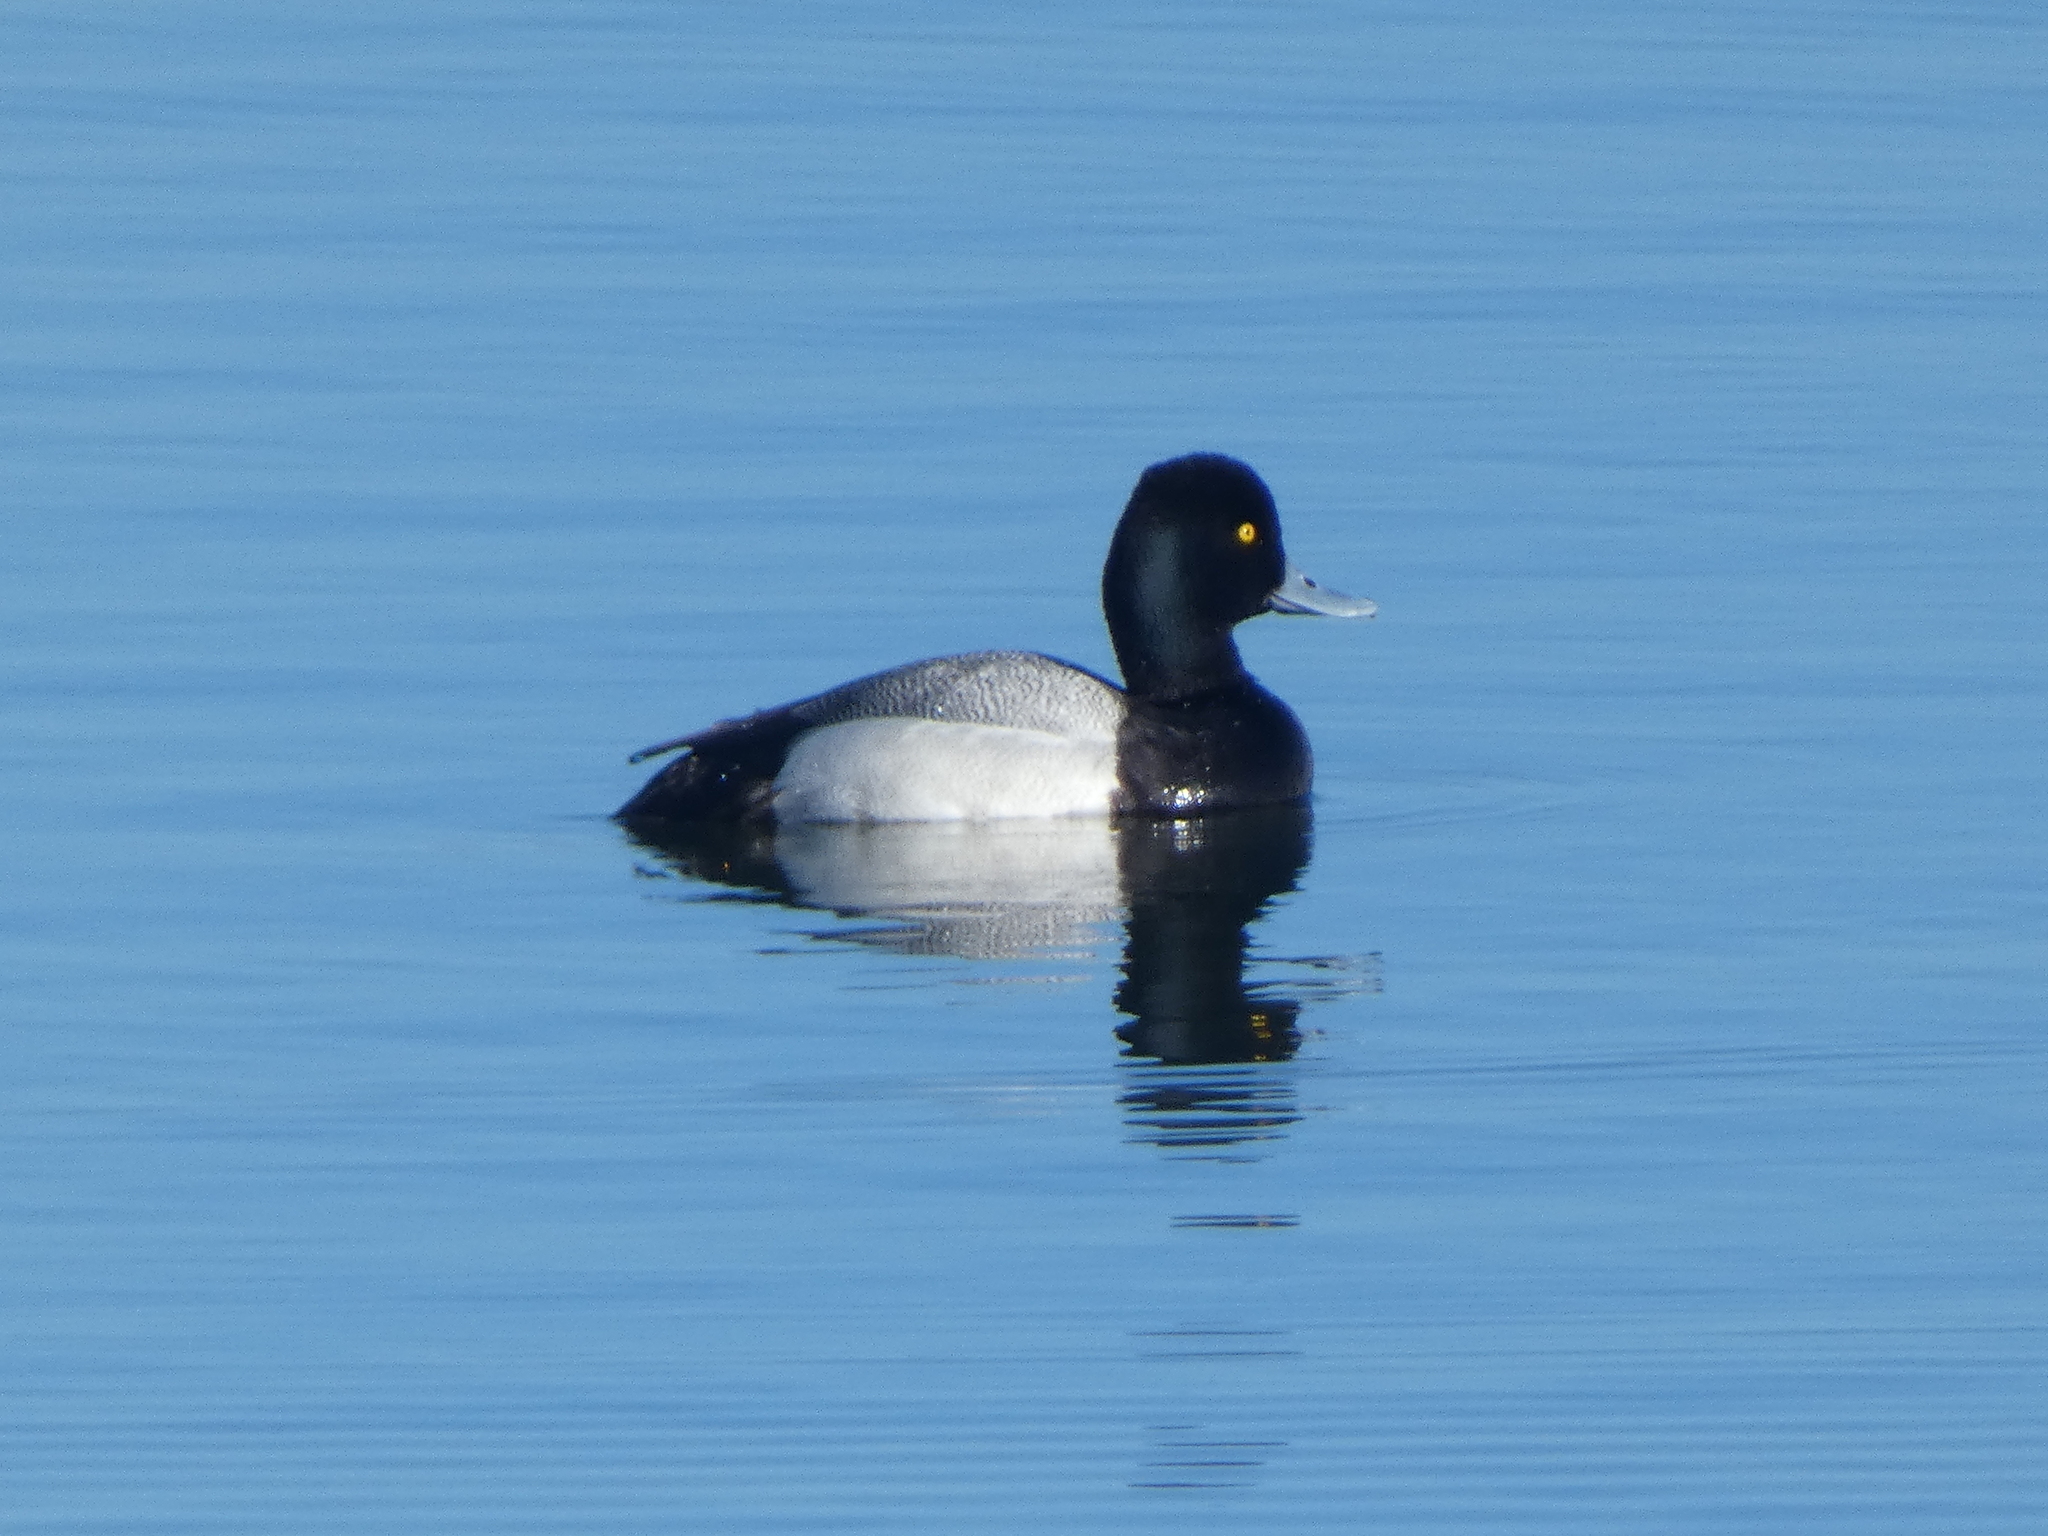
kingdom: Animalia
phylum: Chordata
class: Aves
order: Anseriformes
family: Anatidae
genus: Aythya
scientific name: Aythya affinis
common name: Lesser scaup
